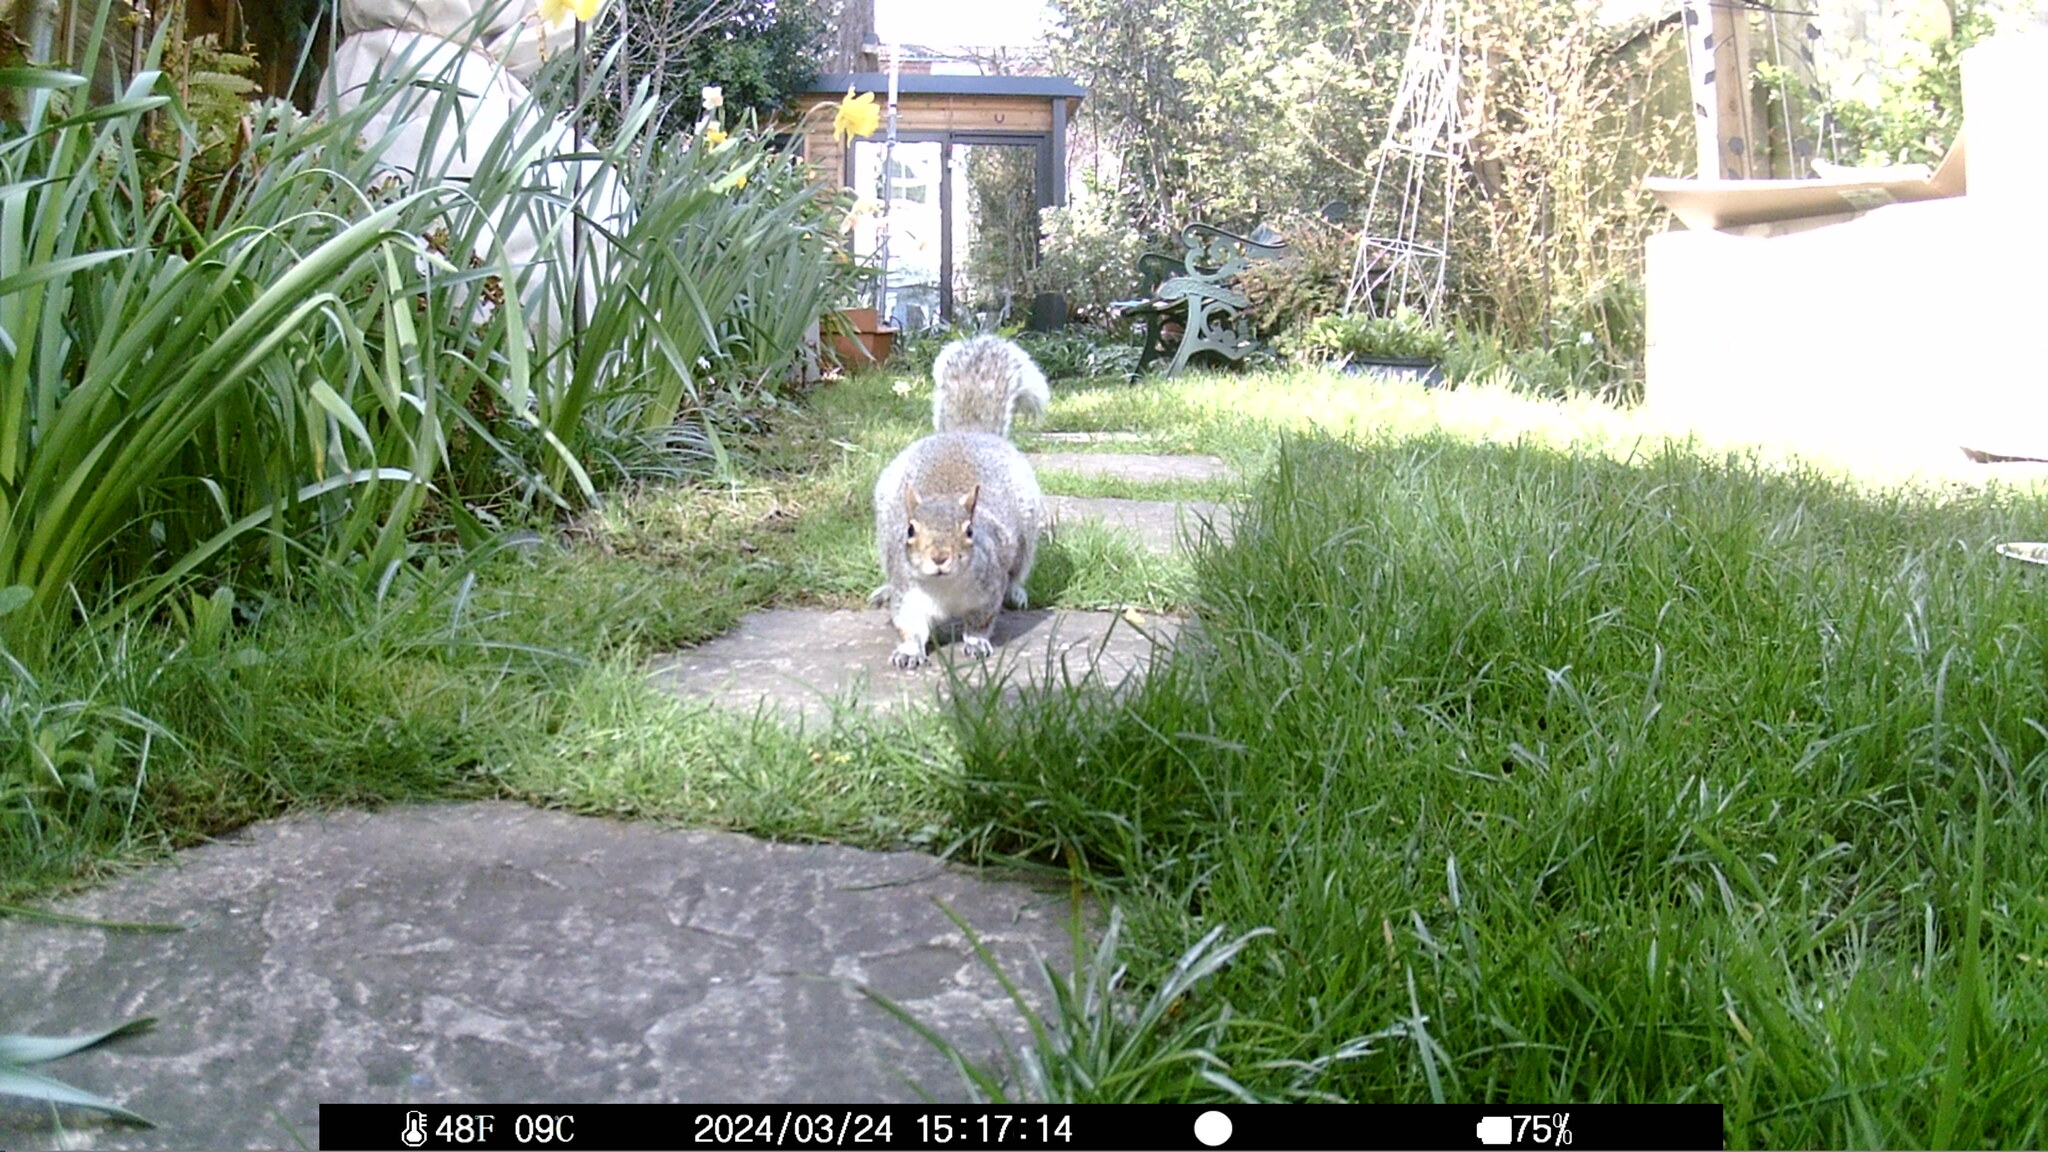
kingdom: Animalia
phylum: Chordata
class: Mammalia
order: Rodentia
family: Sciuridae
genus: Sciurus
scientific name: Sciurus carolinensis
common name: Eastern gray squirrel
